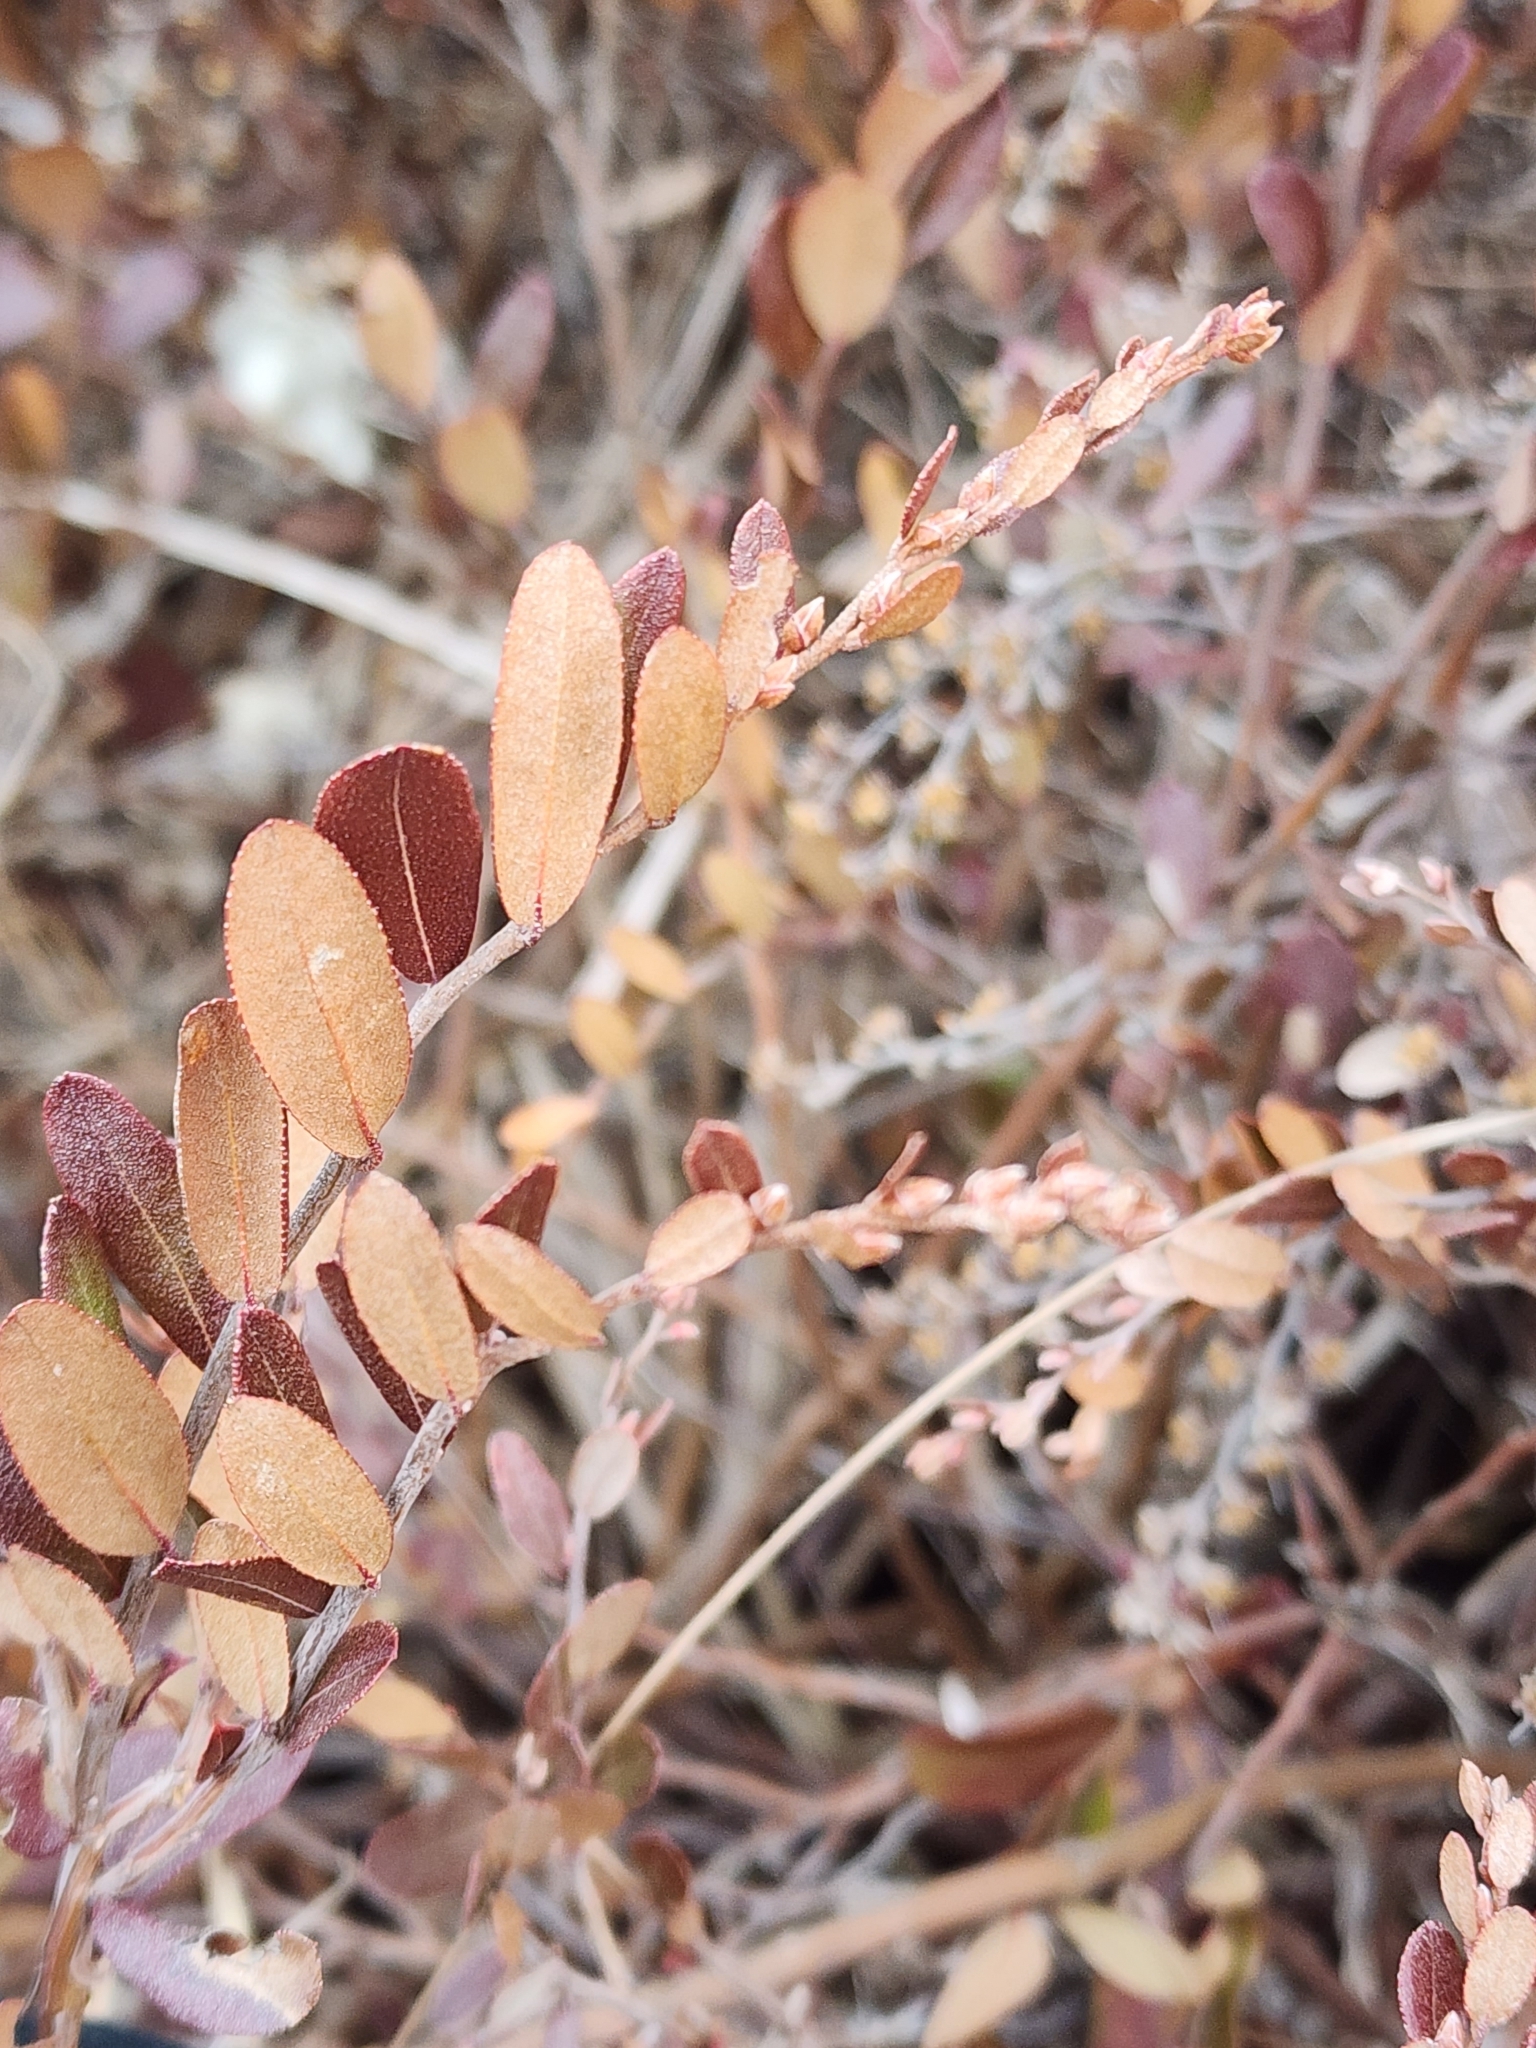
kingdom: Plantae
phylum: Tracheophyta
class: Magnoliopsida
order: Ericales
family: Ericaceae
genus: Chamaedaphne
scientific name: Chamaedaphne calyculata
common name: Leatherleaf
